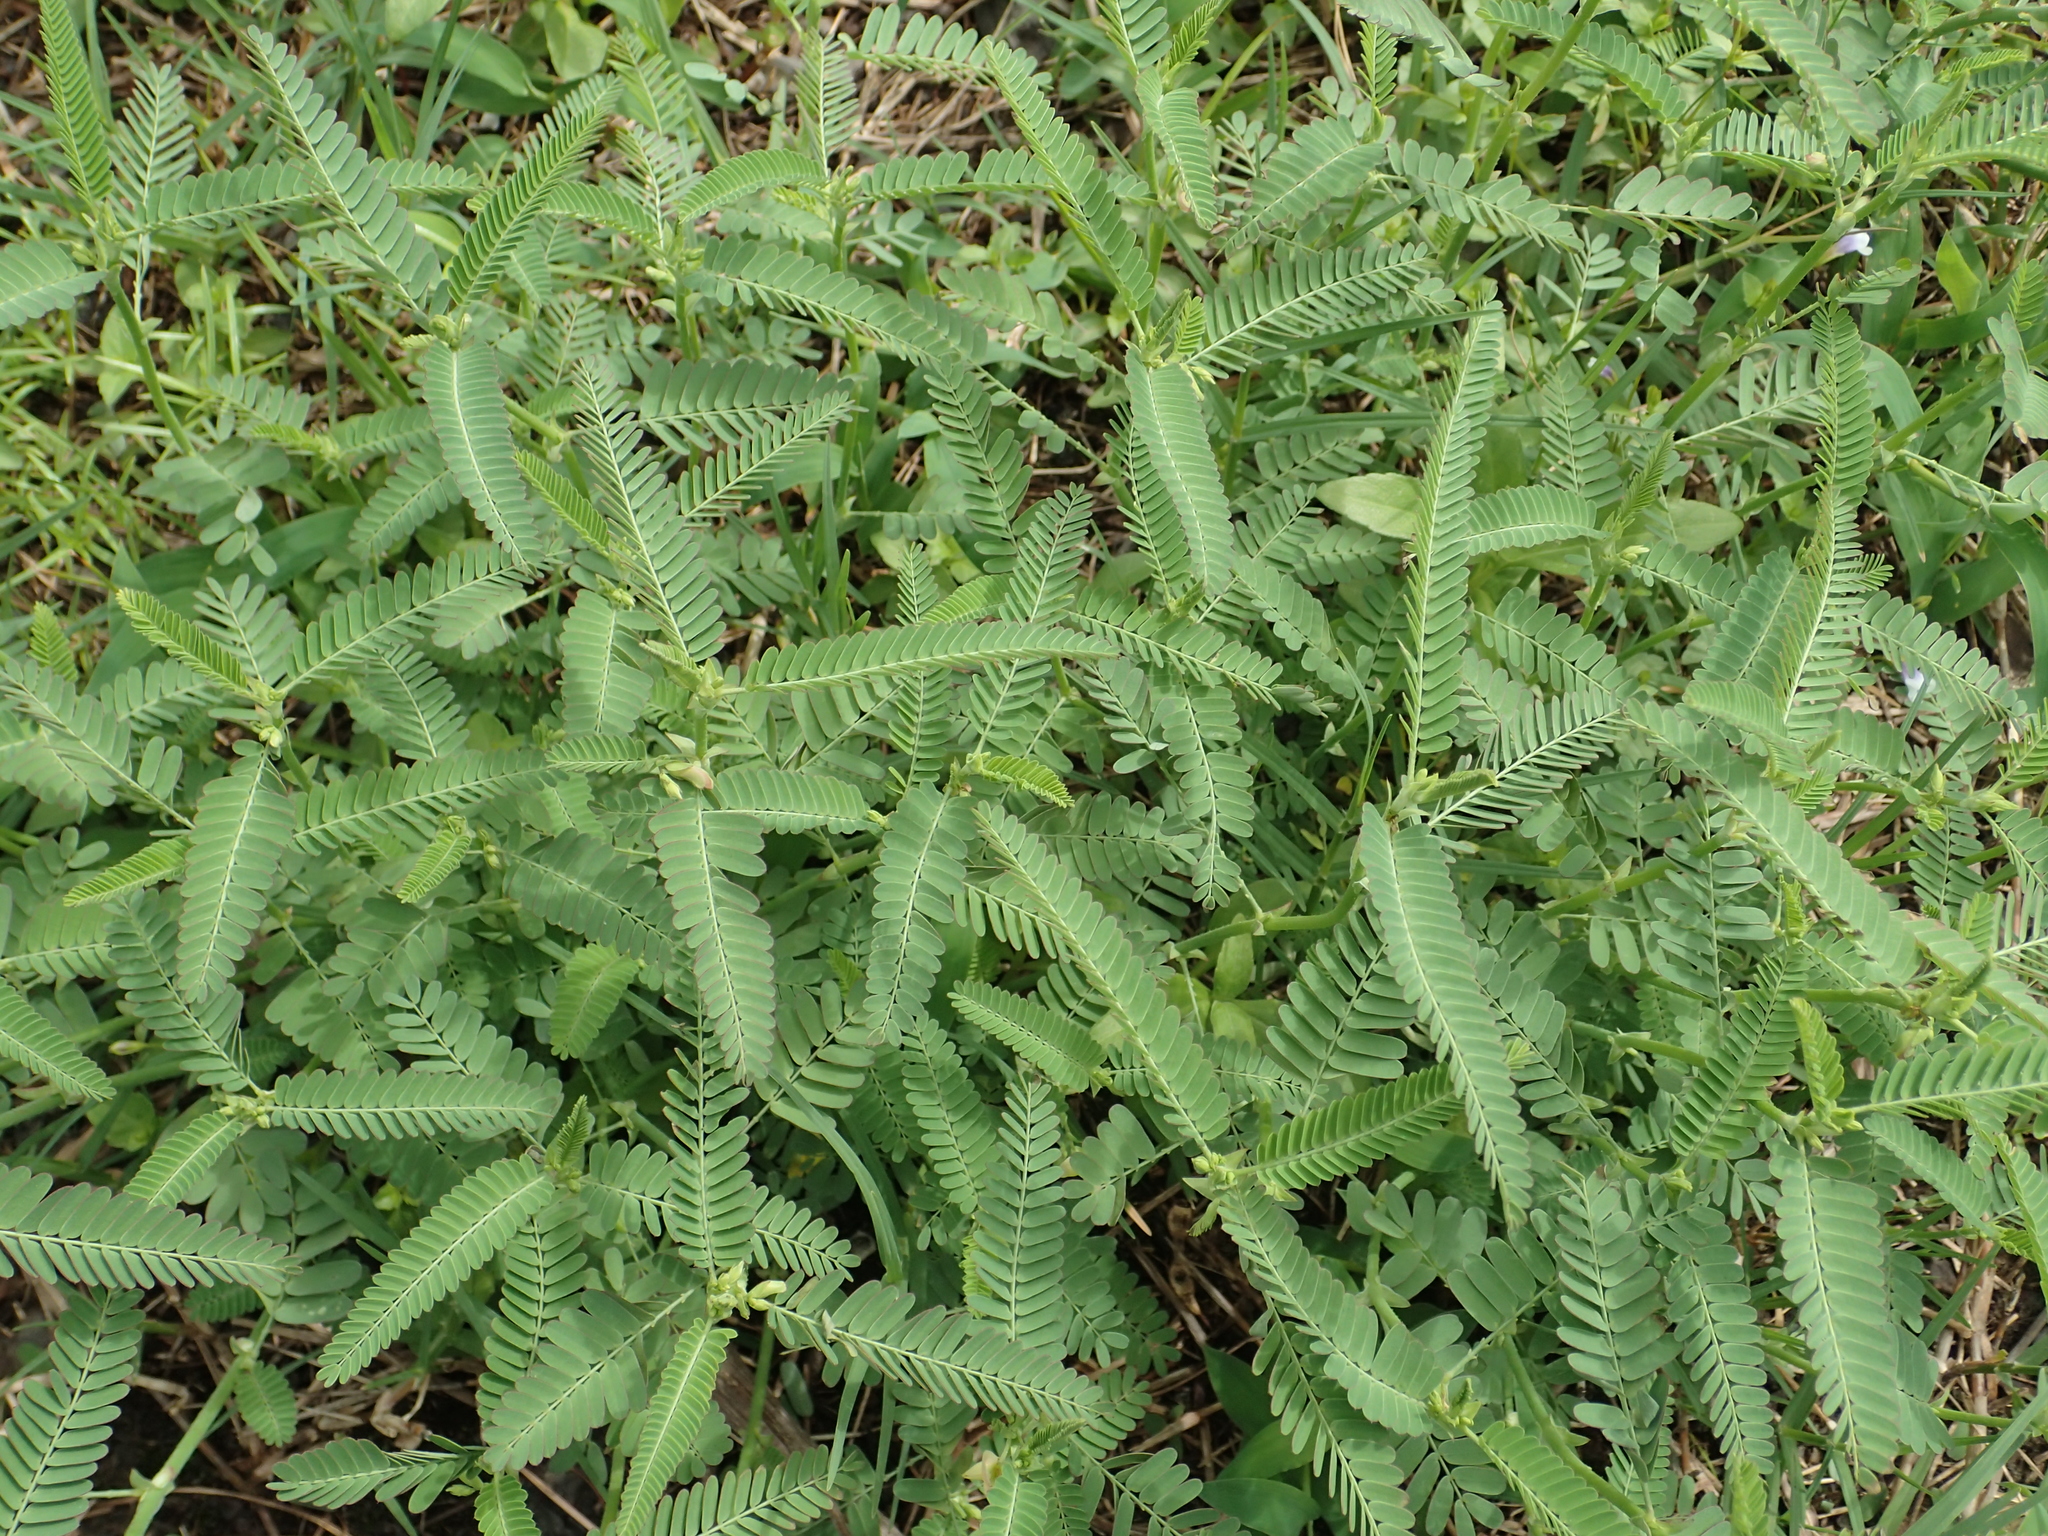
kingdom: Plantae
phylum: Tracheophyta
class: Magnoliopsida
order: Fabales
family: Fabaceae
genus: Aeschynomene
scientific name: Aeschynomene indica
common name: Indian jointvetch
